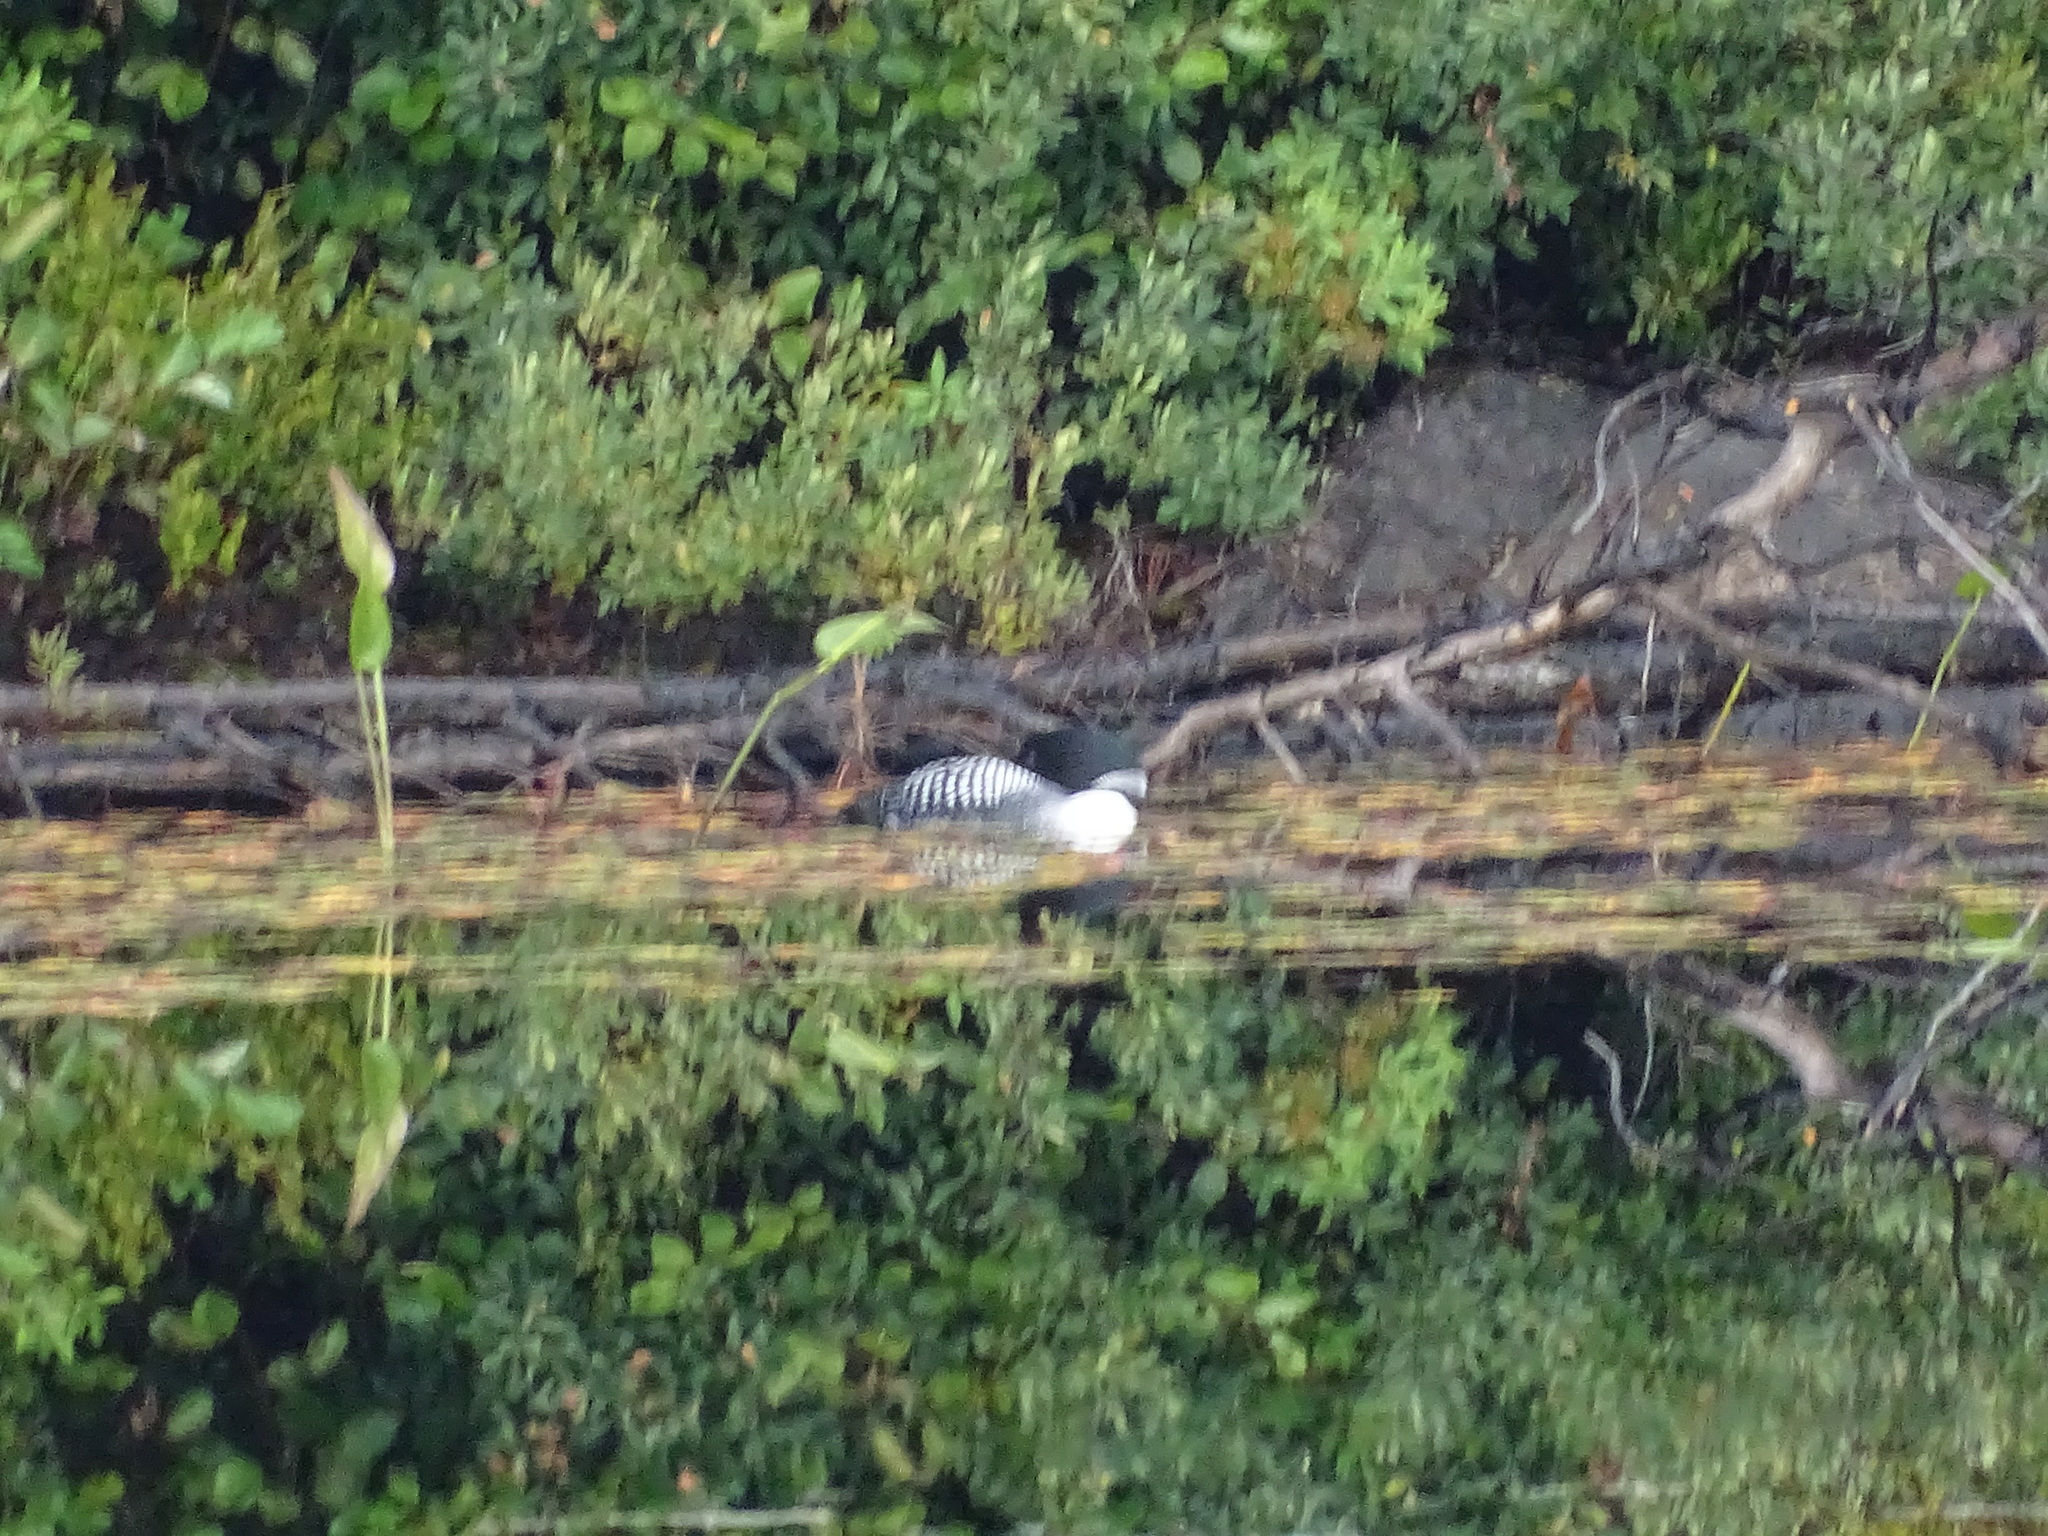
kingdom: Animalia
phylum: Chordata
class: Aves
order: Gaviiformes
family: Gaviidae
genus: Gavia
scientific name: Gavia immer
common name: Common loon
